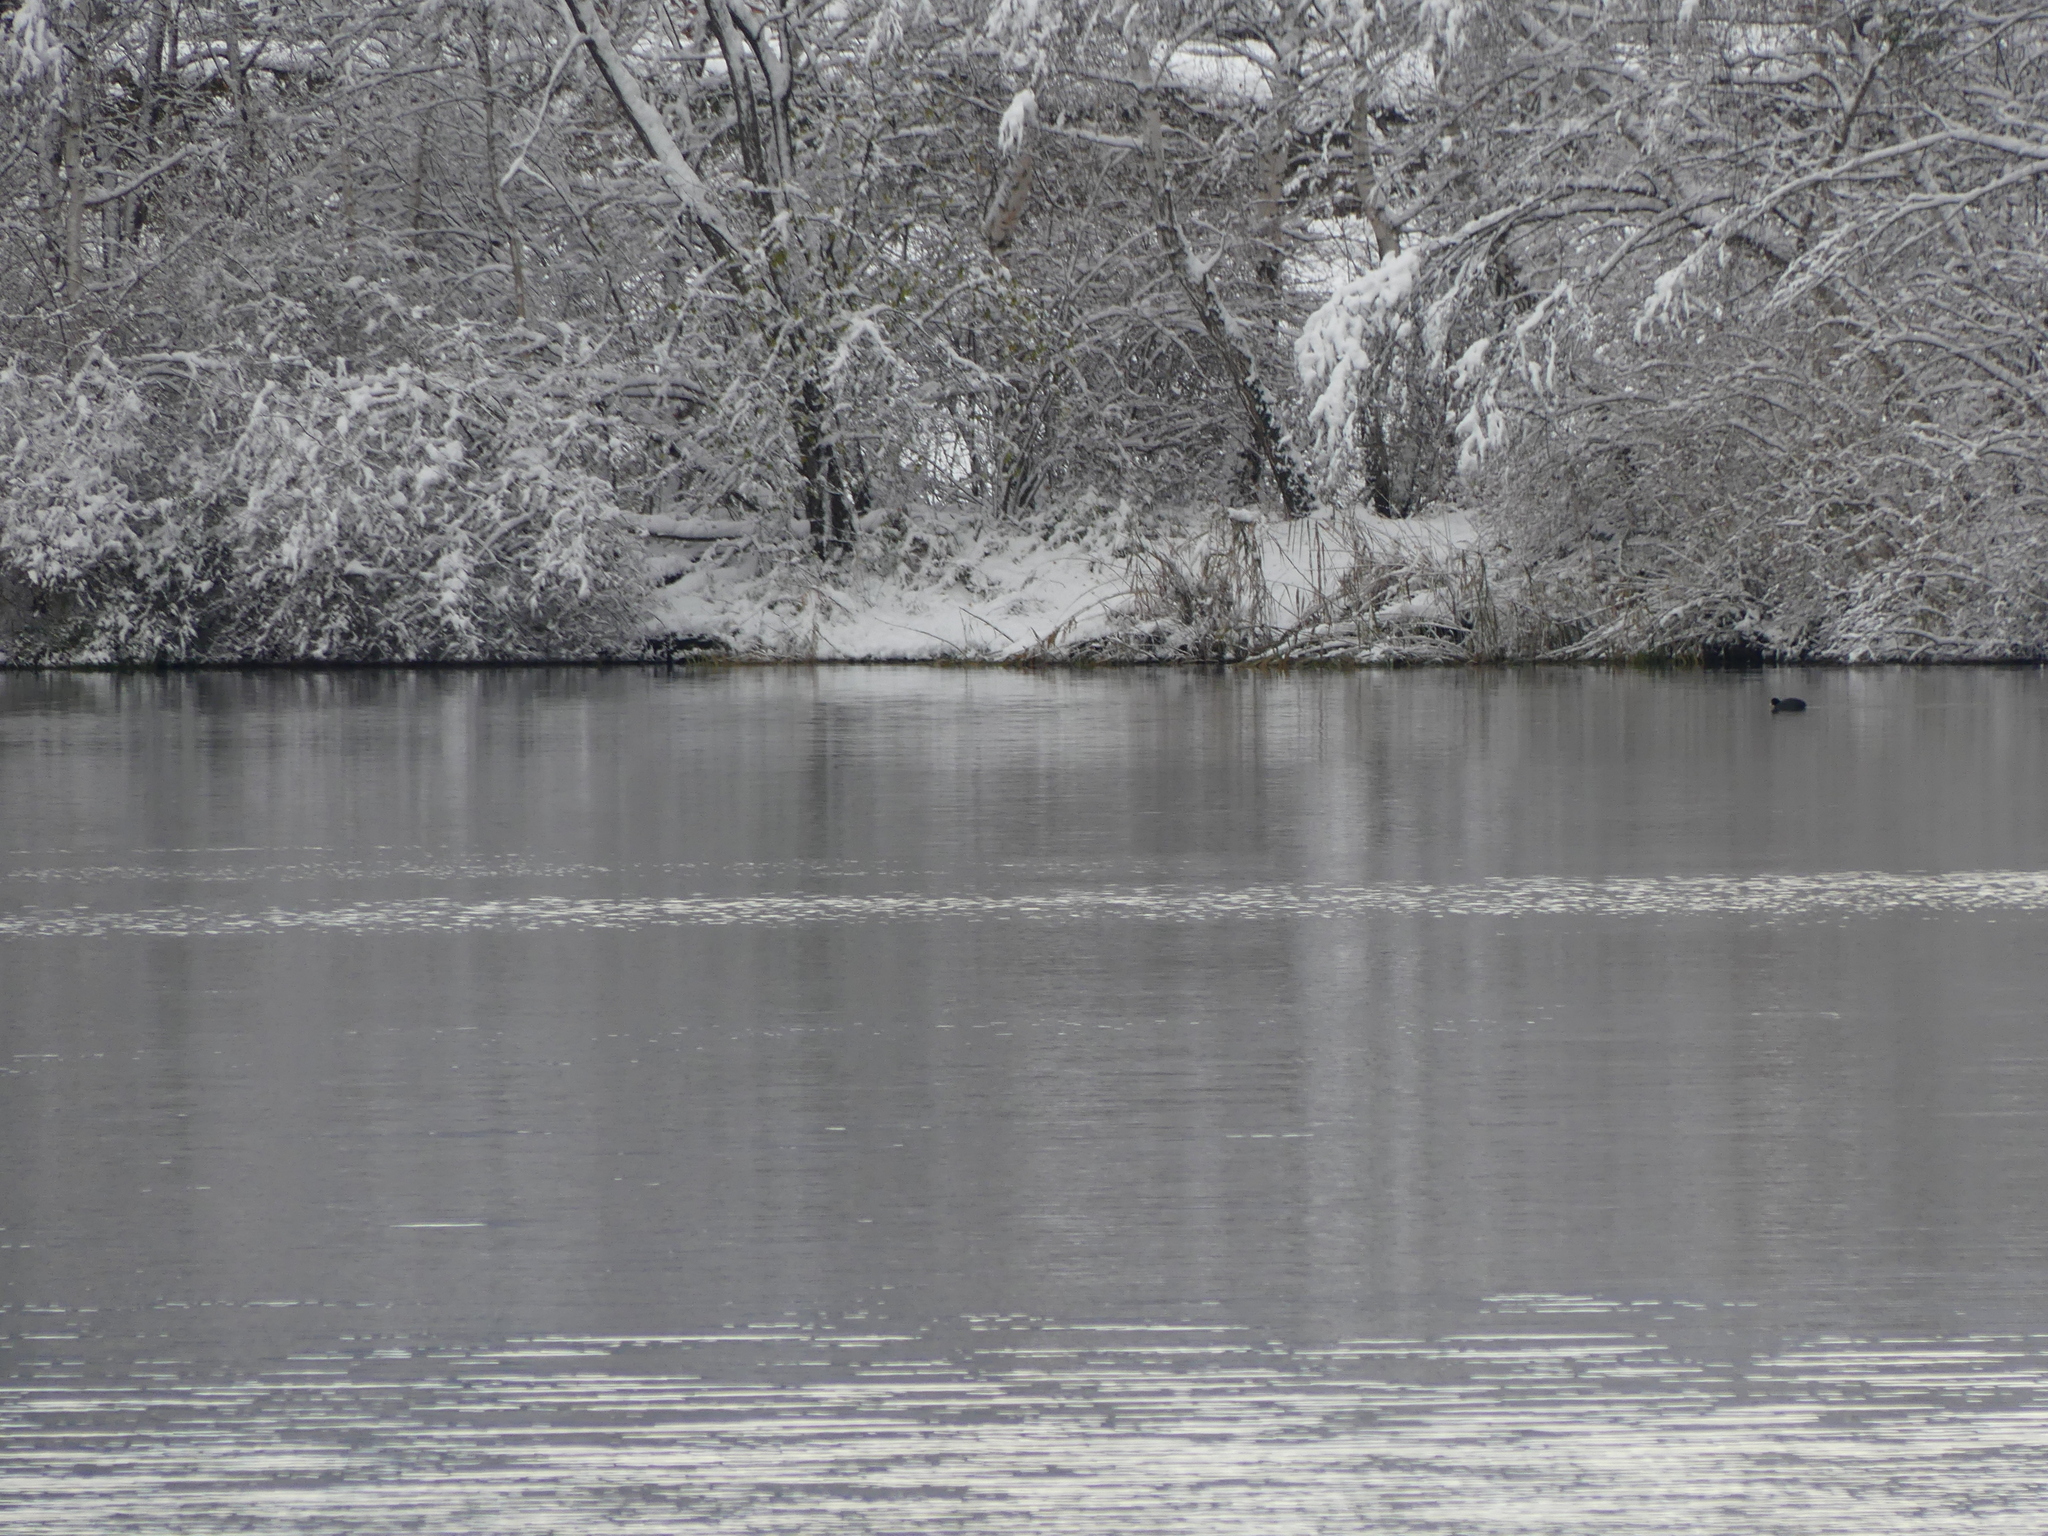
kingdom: Animalia
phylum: Chordata
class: Aves
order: Gruiformes
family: Rallidae
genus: Fulica
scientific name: Fulica atra
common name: Eurasian coot
